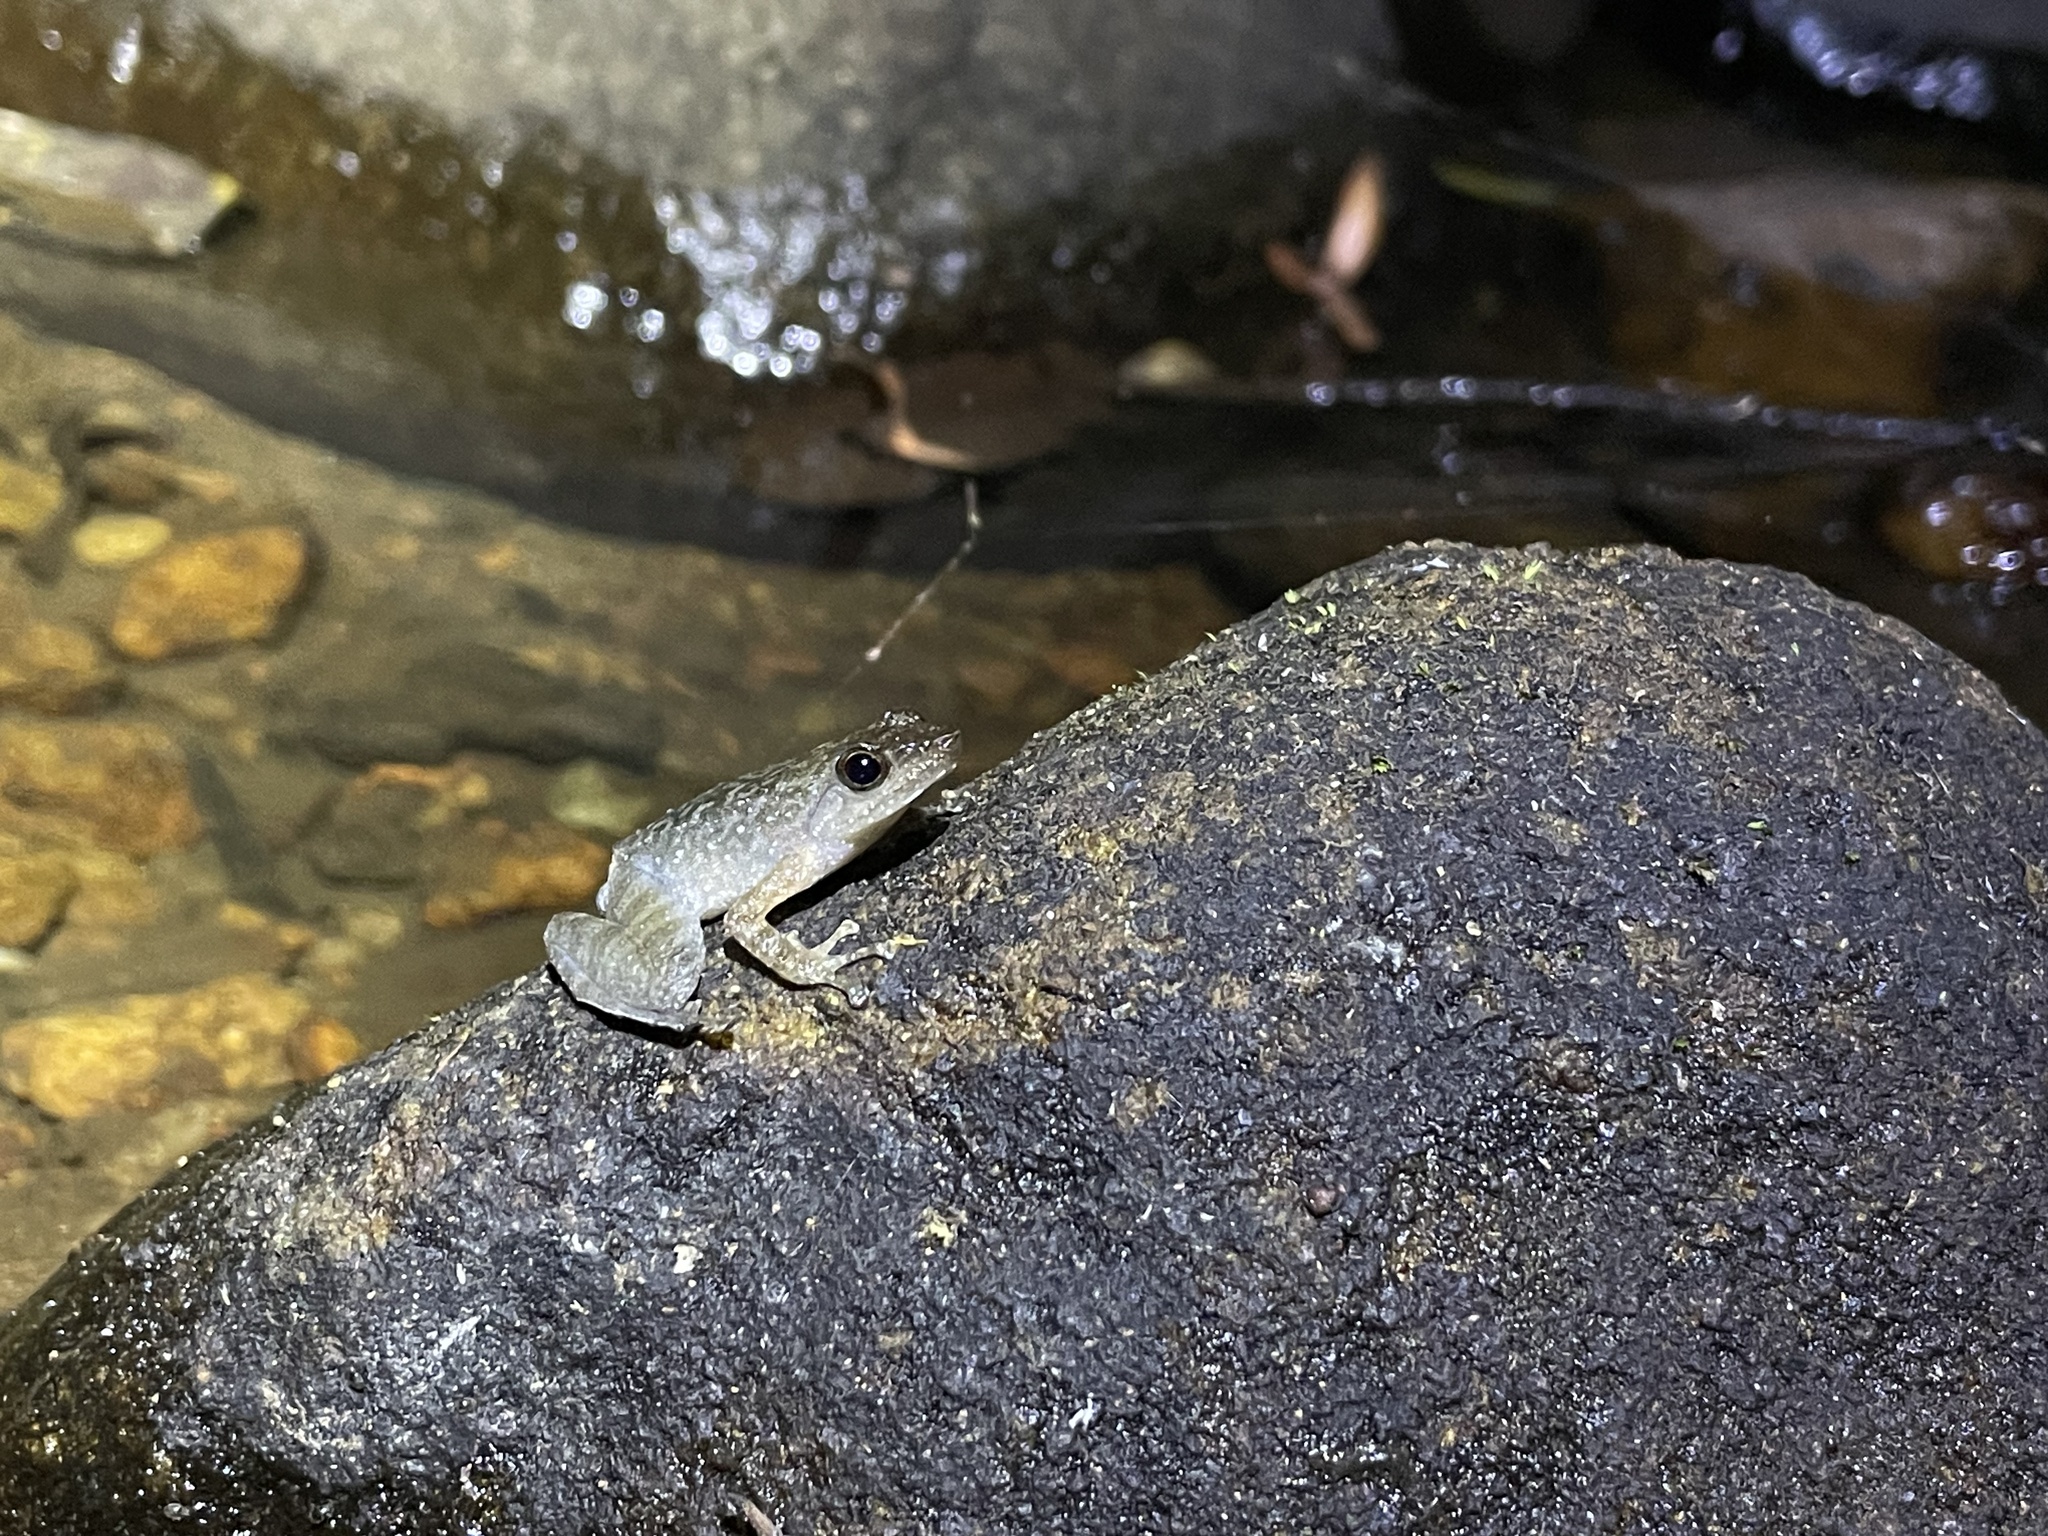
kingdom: Animalia
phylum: Chordata
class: Amphibia
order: Anura
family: Micrixalidae
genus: Micrixalus
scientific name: Micrixalus kottigeharensis
